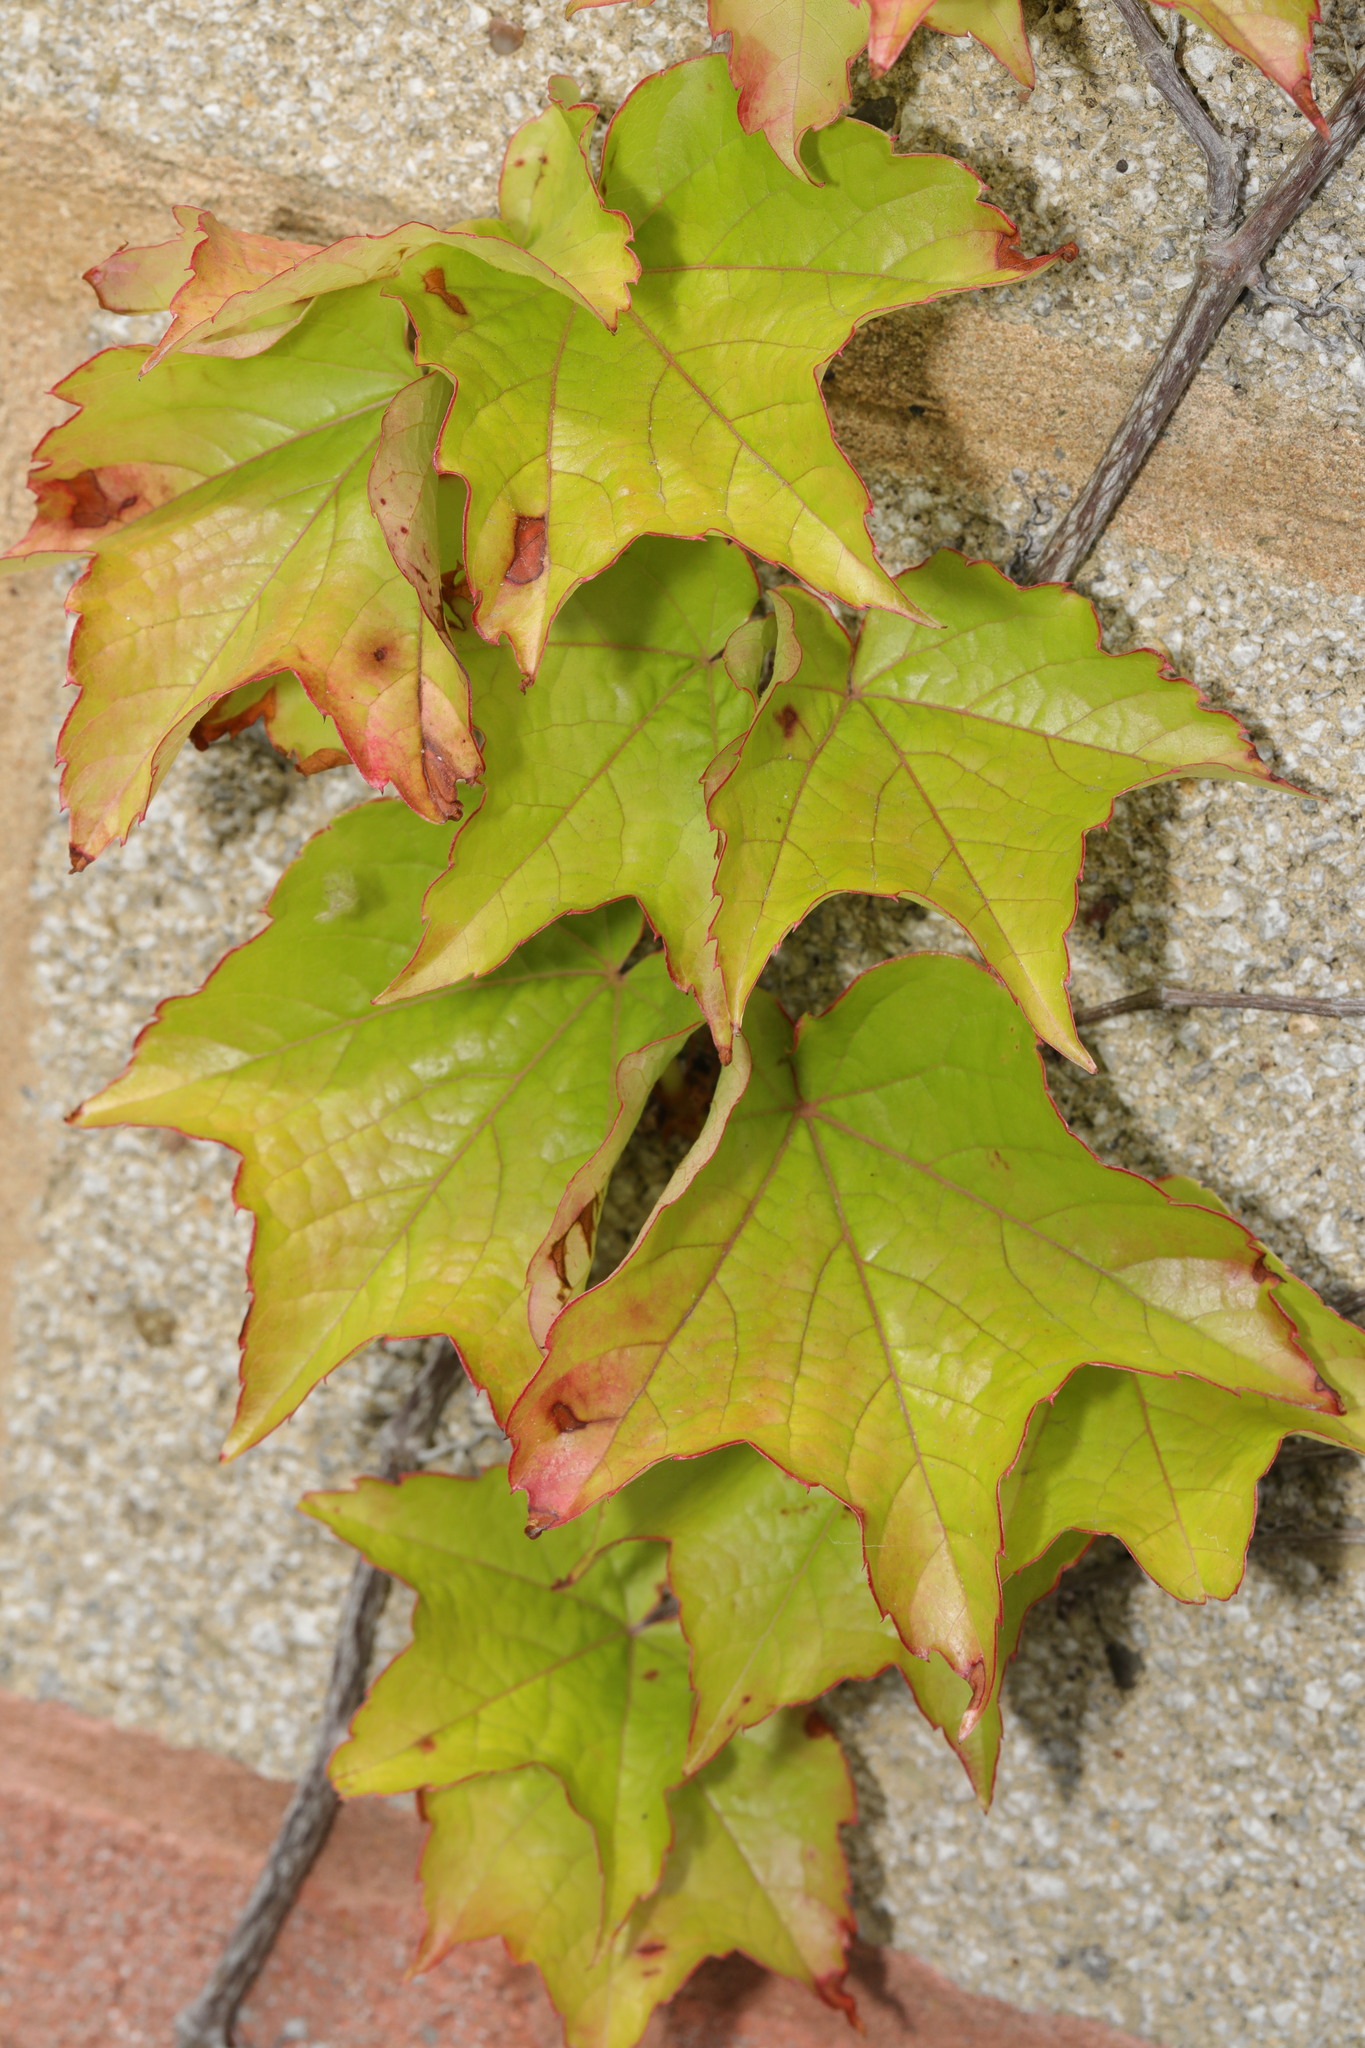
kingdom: Plantae
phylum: Tracheophyta
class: Magnoliopsida
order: Vitales
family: Vitaceae
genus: Parthenocissus
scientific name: Parthenocissus tricuspidata
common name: Boston ivy
